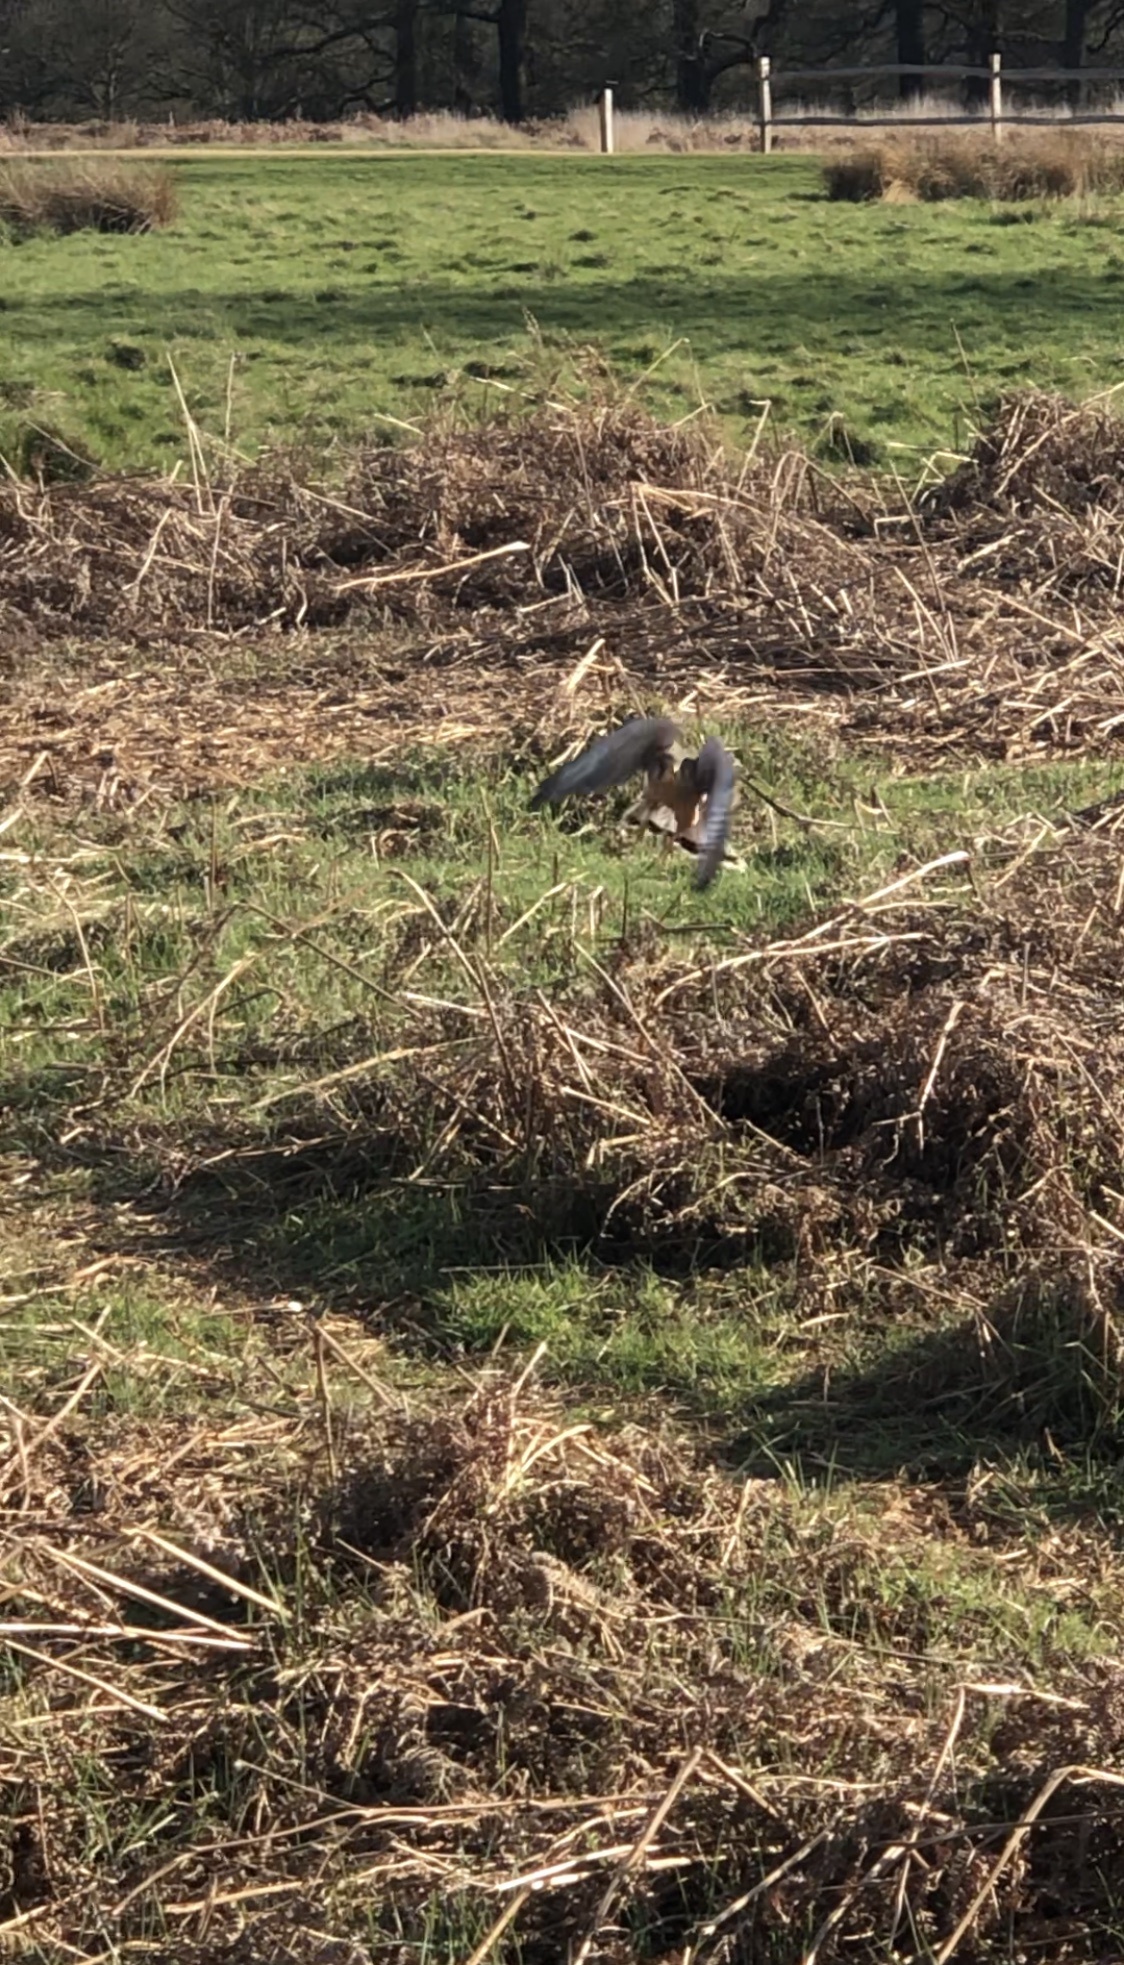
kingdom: Animalia
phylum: Chordata
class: Aves
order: Falconiformes
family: Falconidae
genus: Falco
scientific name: Falco tinnunculus
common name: Common kestrel
